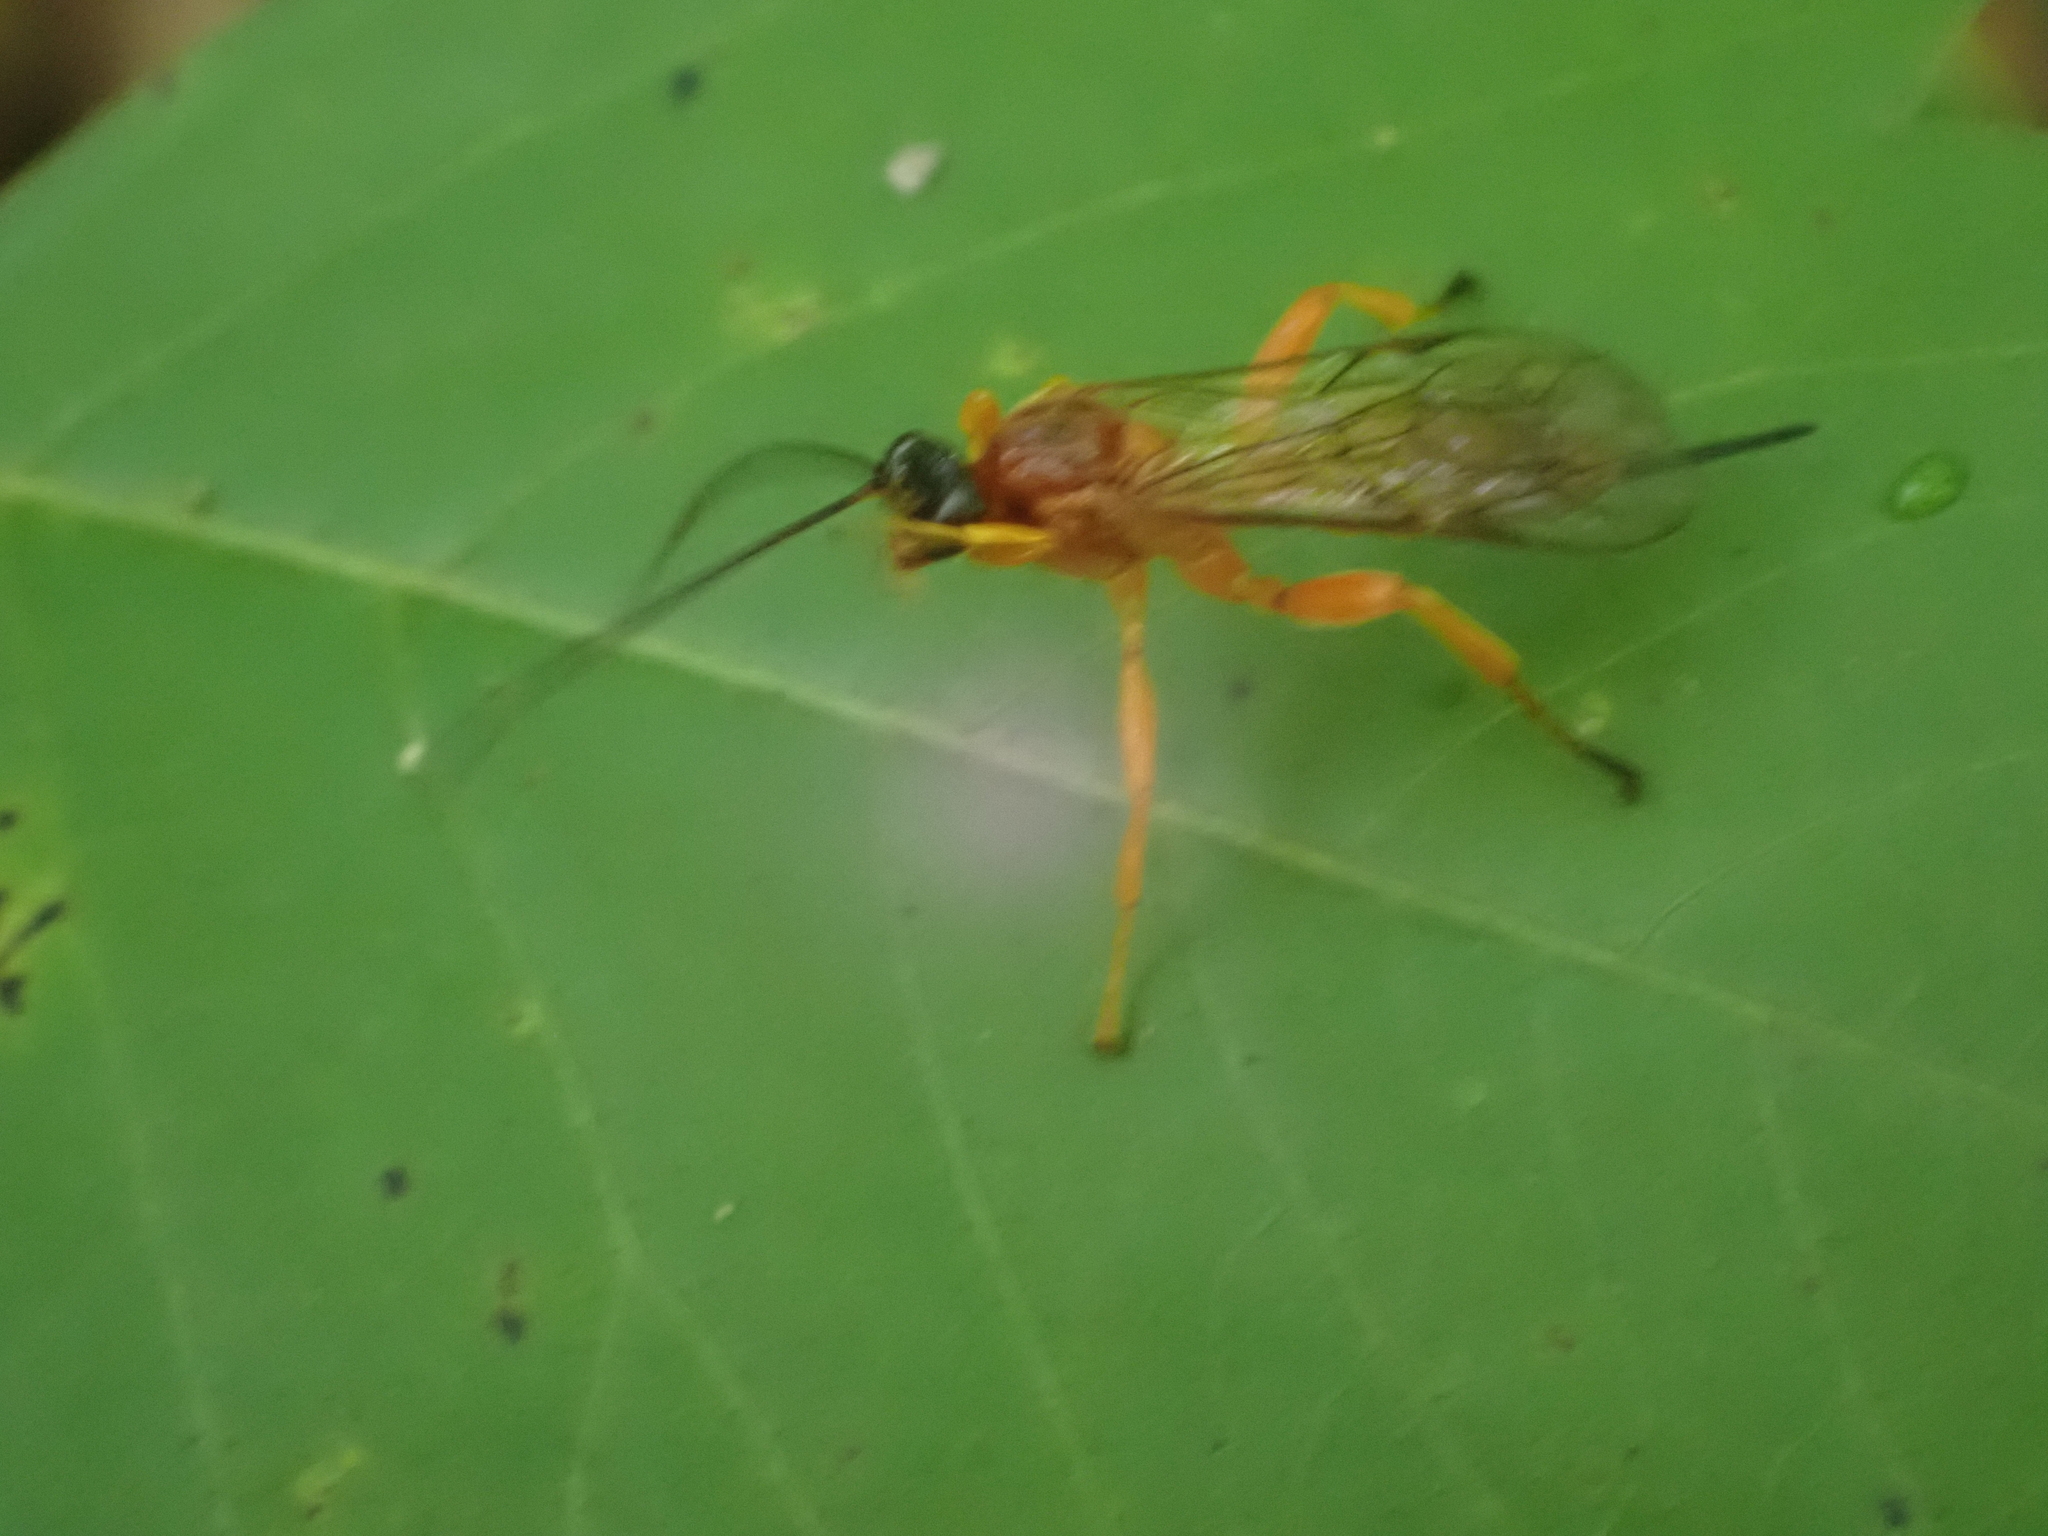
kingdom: Animalia
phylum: Arthropoda
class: Insecta
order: Hymenoptera
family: Ichneumonidae
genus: Theronia
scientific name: Theronia hilaris
